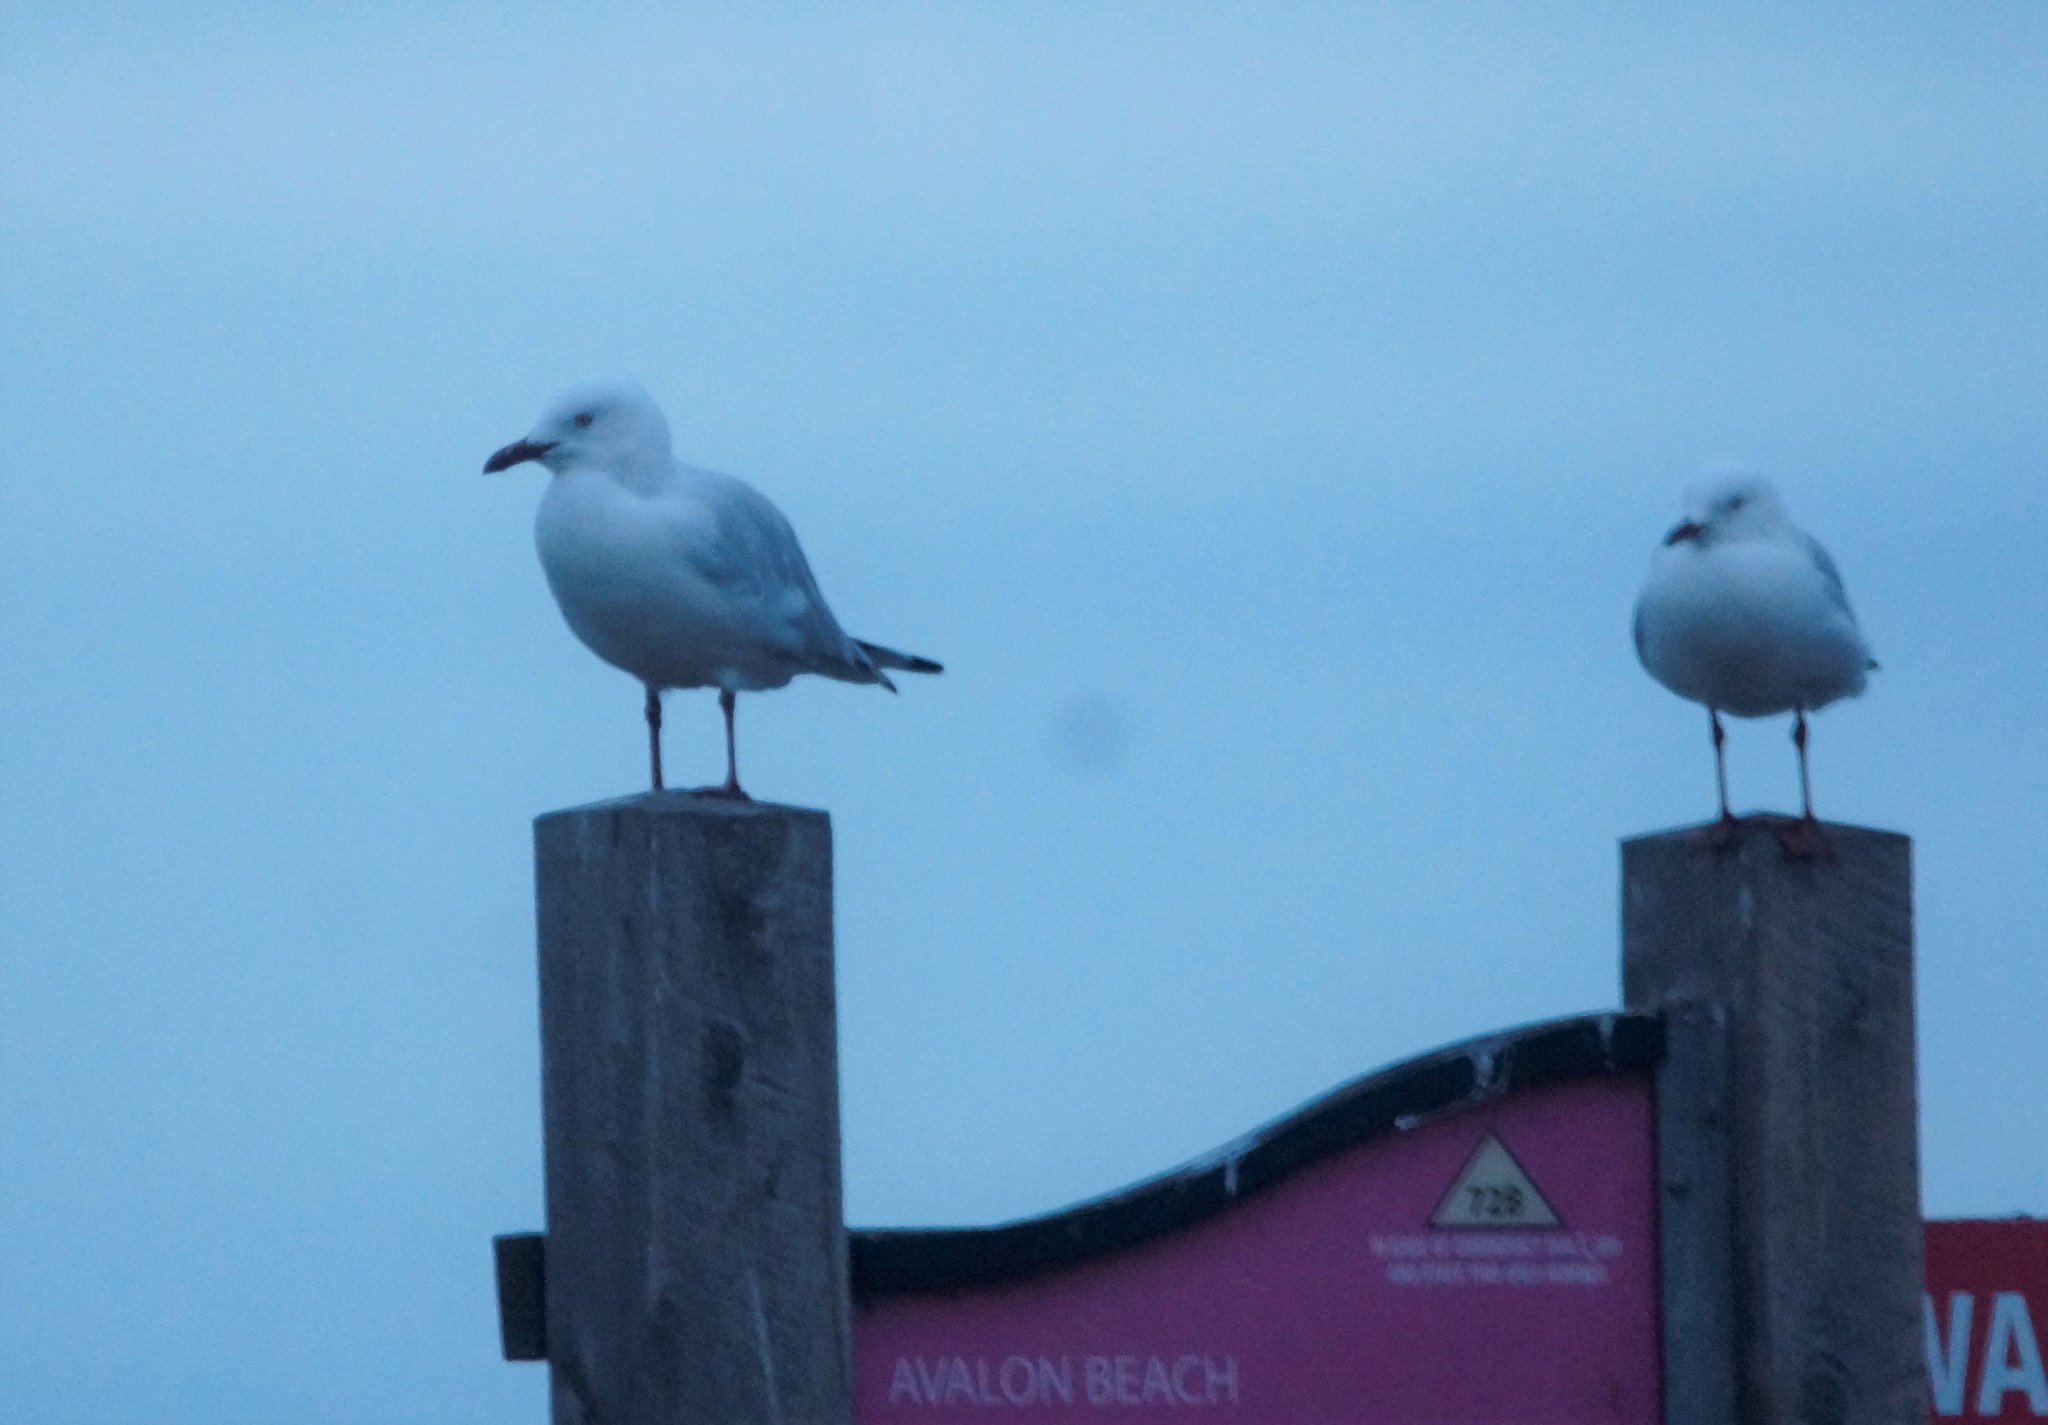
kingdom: Animalia
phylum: Chordata
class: Aves
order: Charadriiformes
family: Laridae
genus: Chroicocephalus
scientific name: Chroicocephalus novaehollandiae
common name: Silver gull
